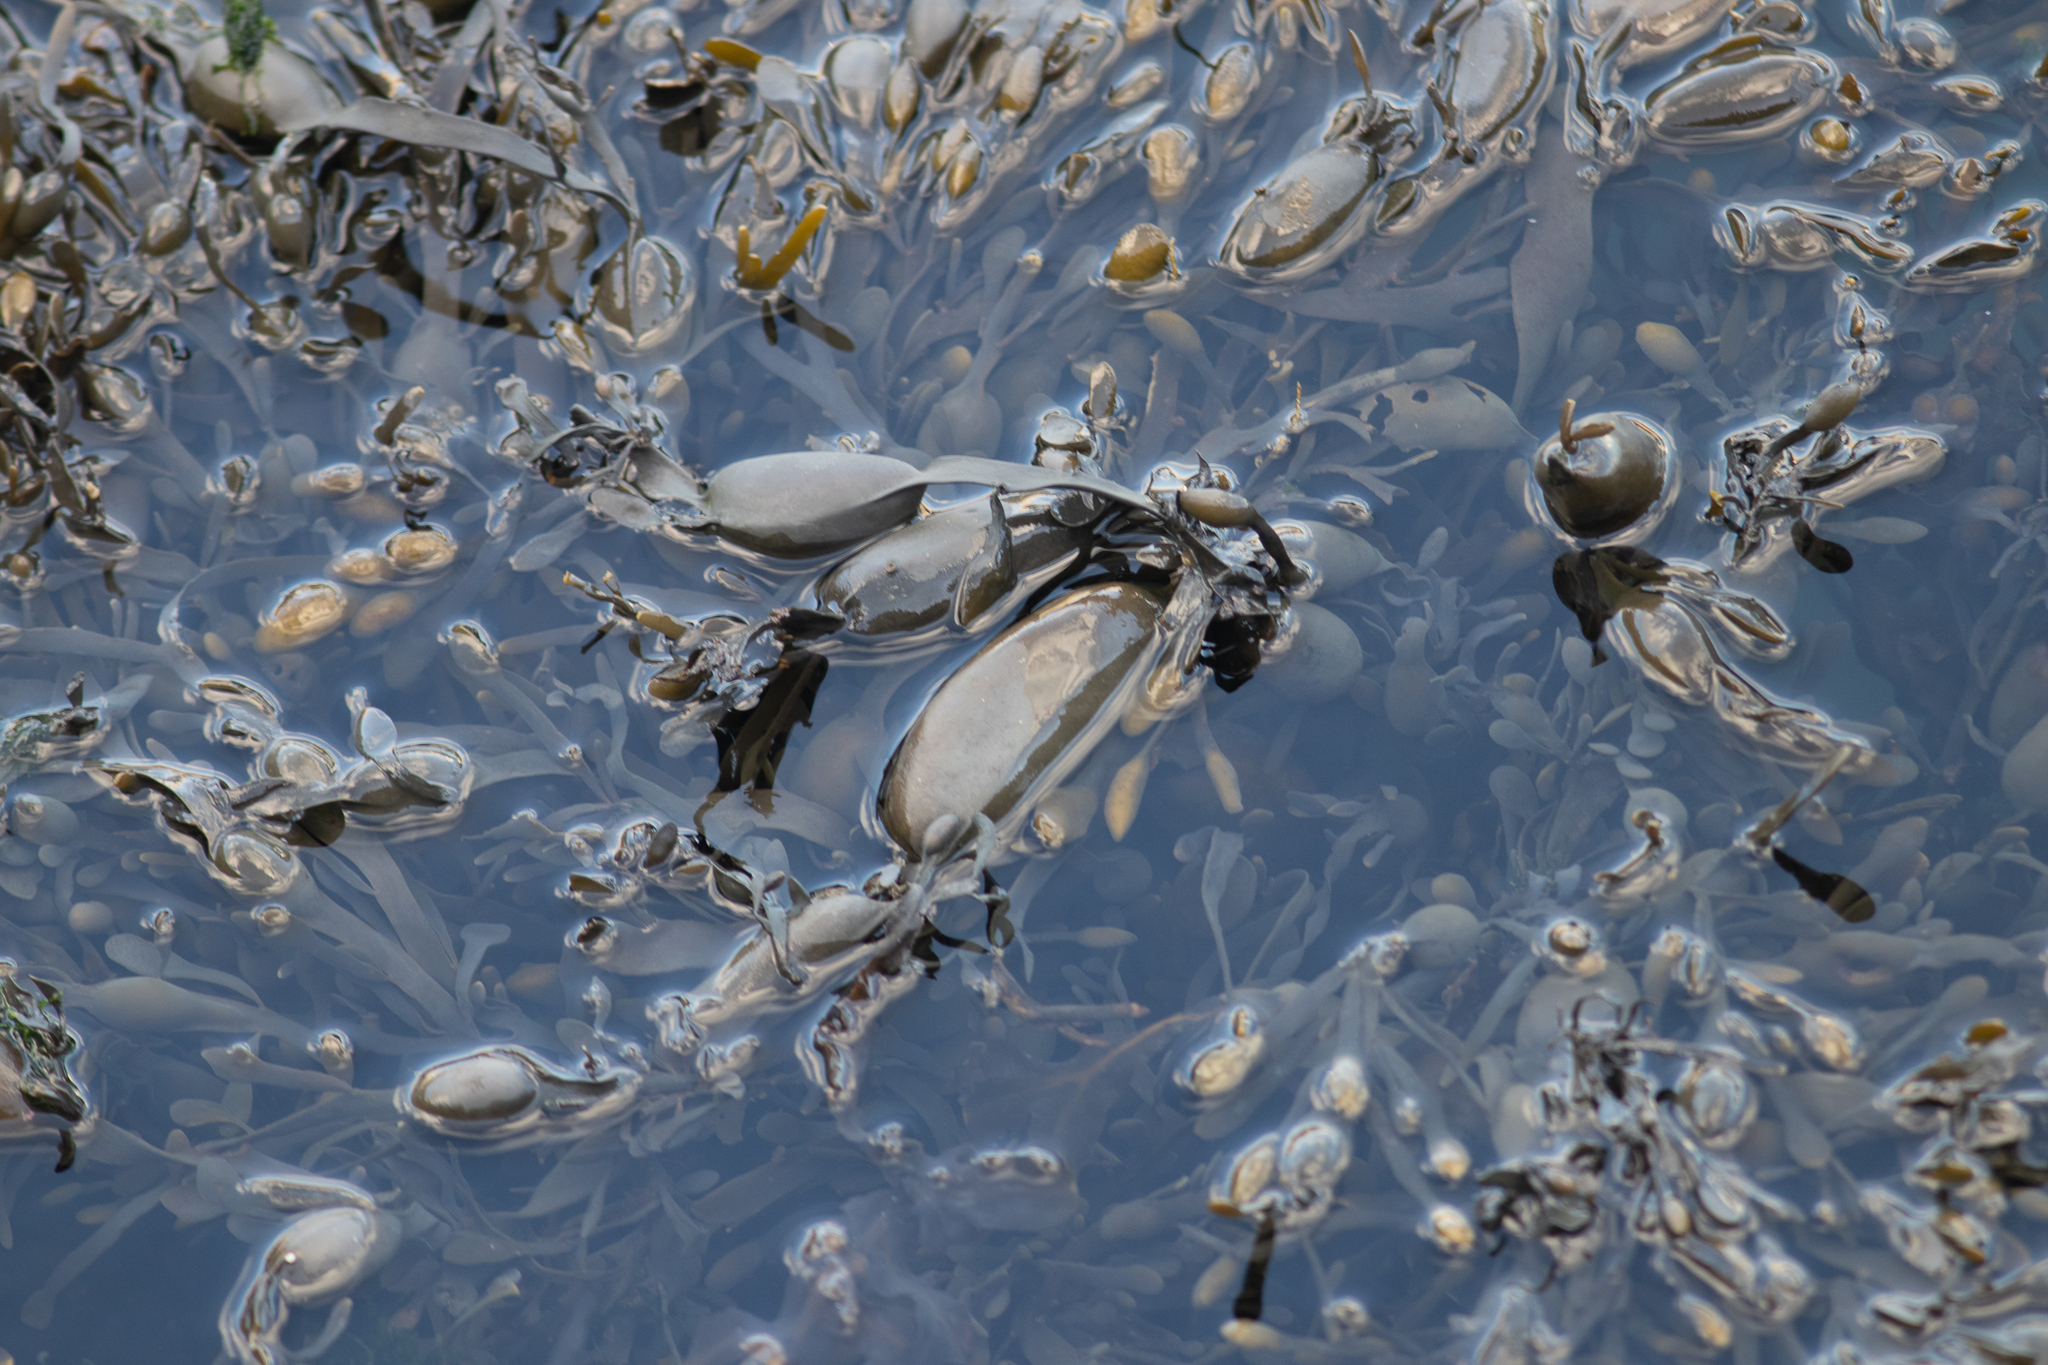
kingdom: Chromista
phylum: Ochrophyta
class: Phaeophyceae
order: Fucales
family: Fucaceae
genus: Ascophyllum
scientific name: Ascophyllum nodosum
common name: Knotted wrack
